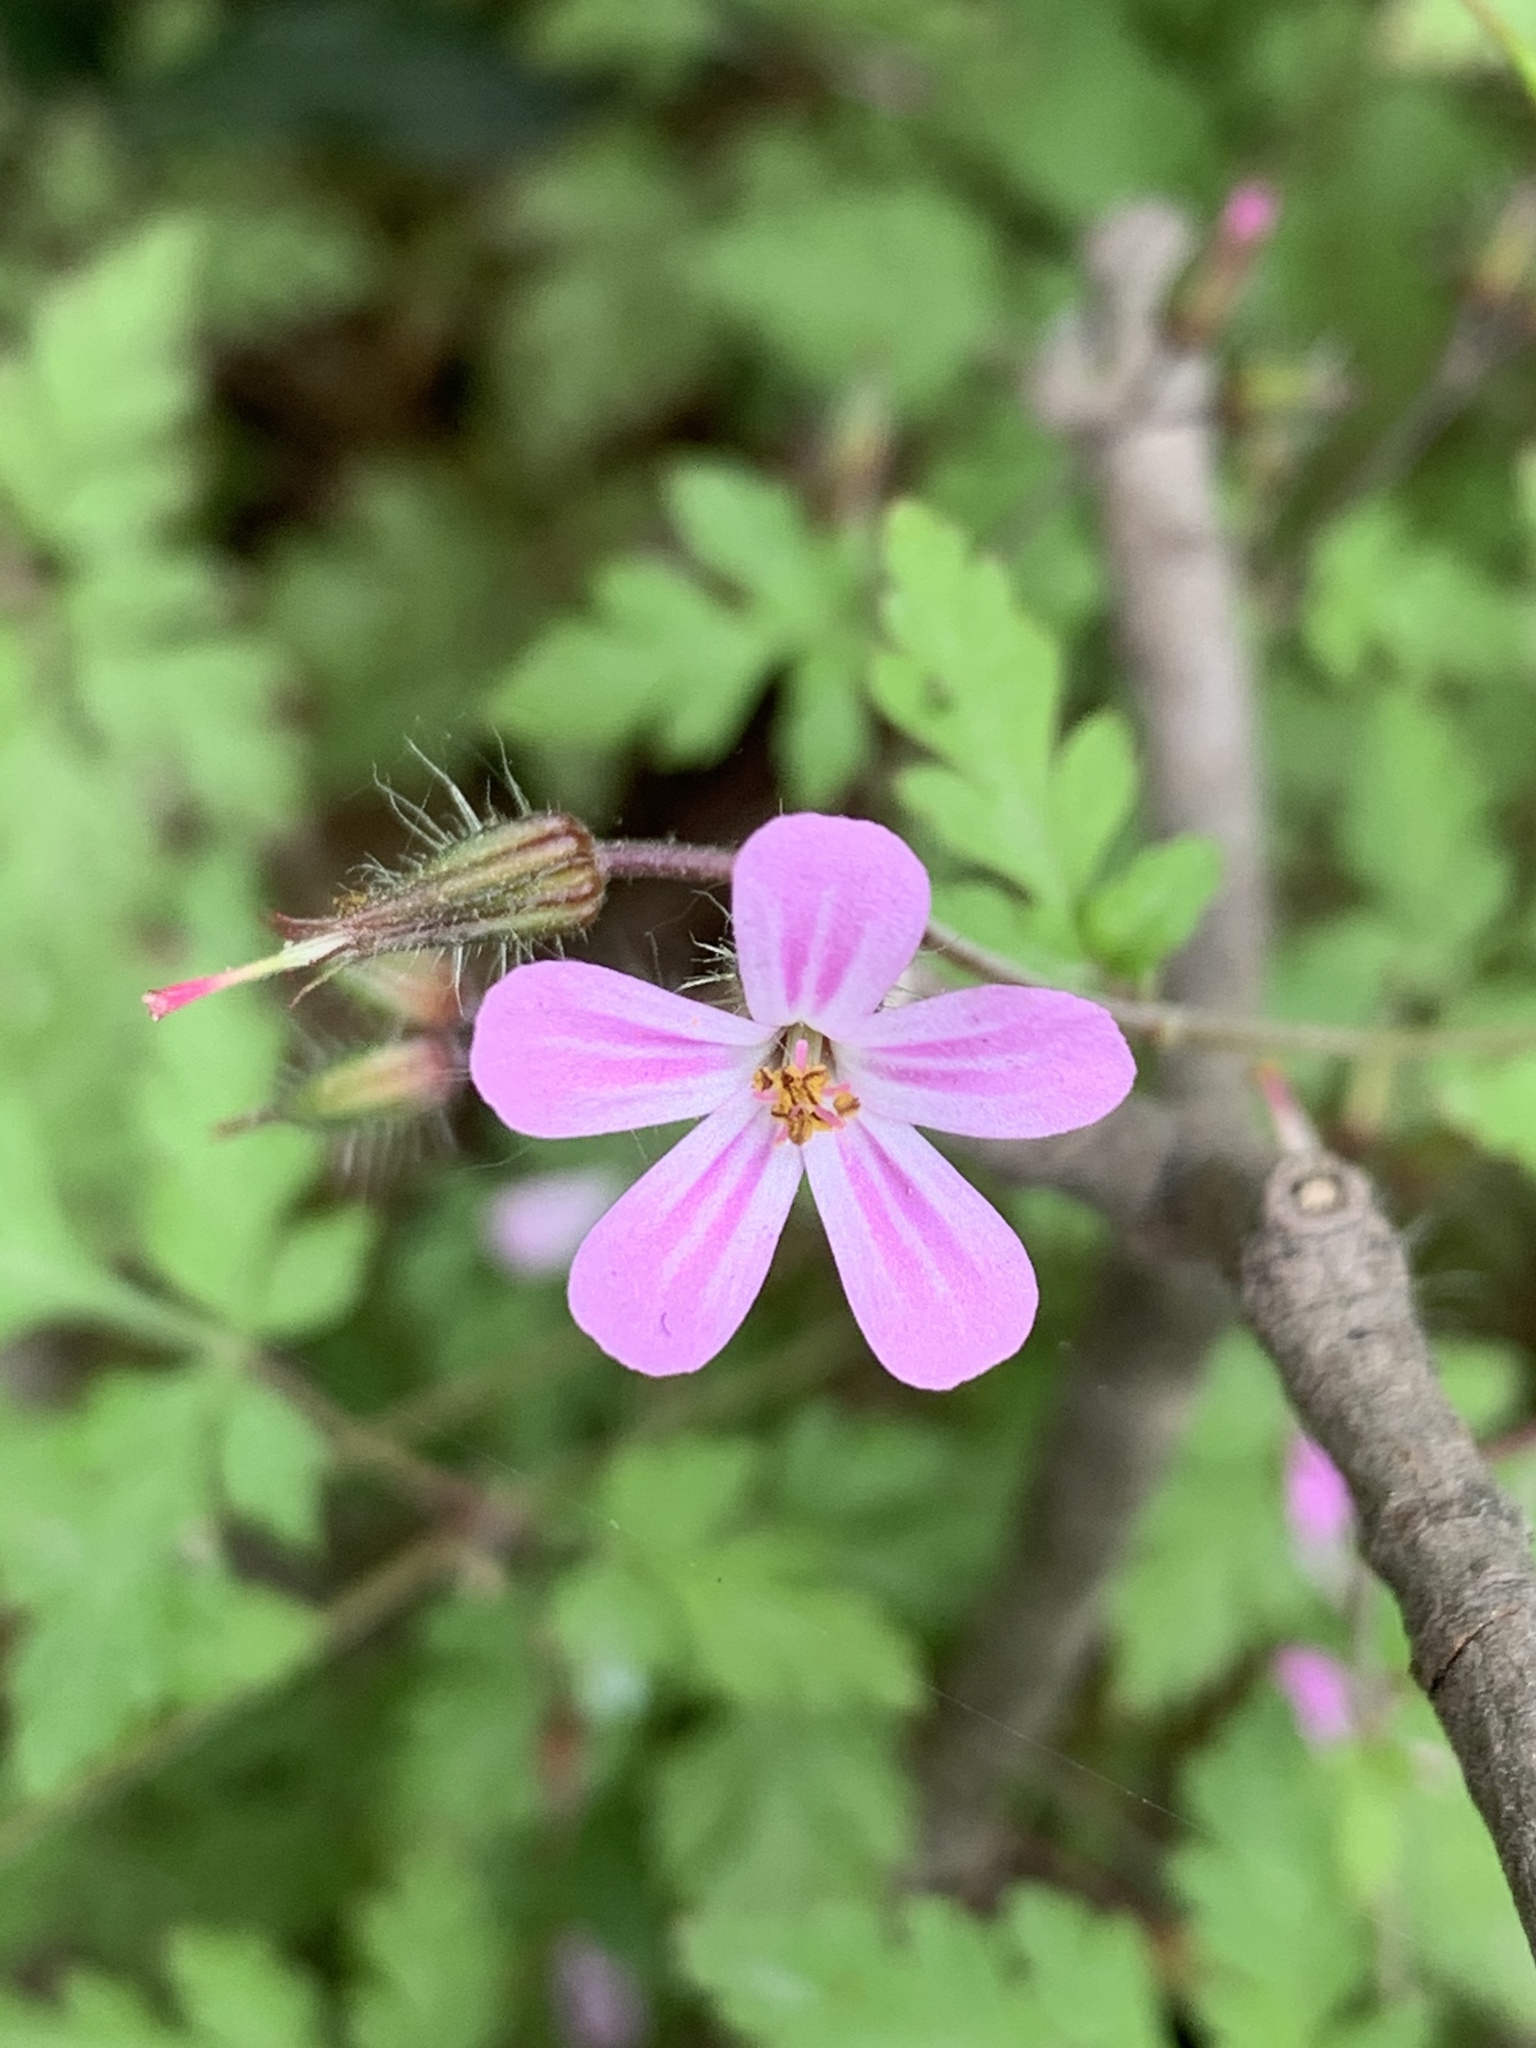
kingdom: Plantae
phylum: Tracheophyta
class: Magnoliopsida
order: Geraniales
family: Geraniaceae
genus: Geranium
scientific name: Geranium robertianum
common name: Herb-robert
